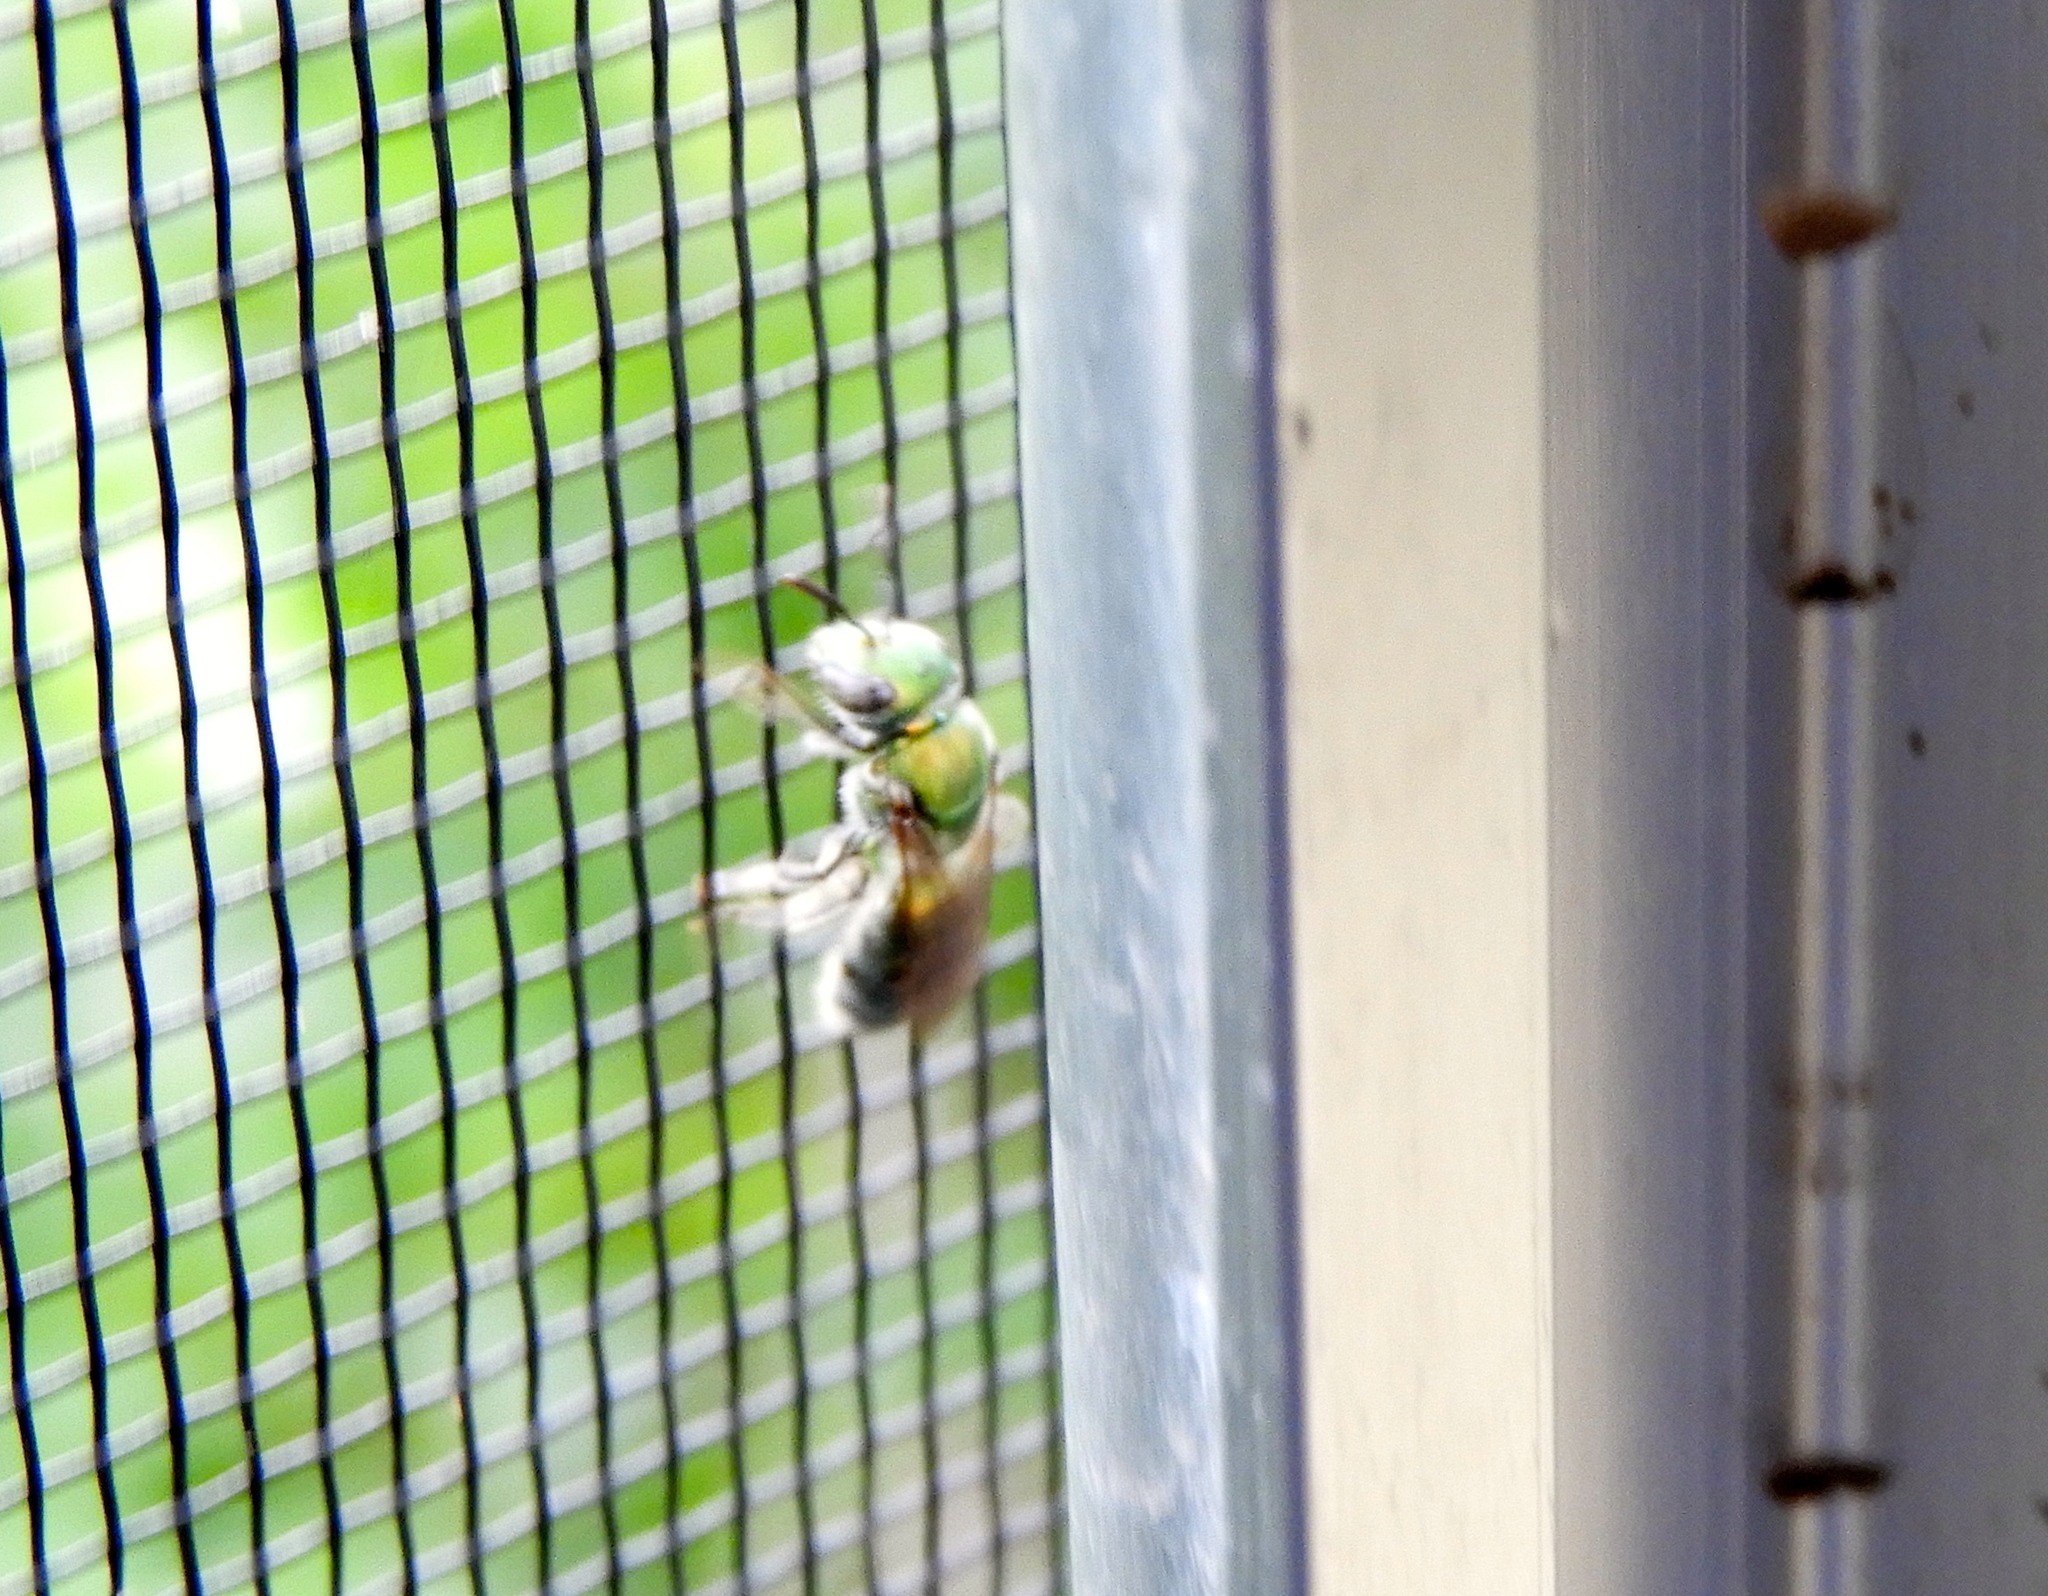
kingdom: Animalia
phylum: Arthropoda
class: Insecta
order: Hymenoptera
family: Halictidae
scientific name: Halictidae
